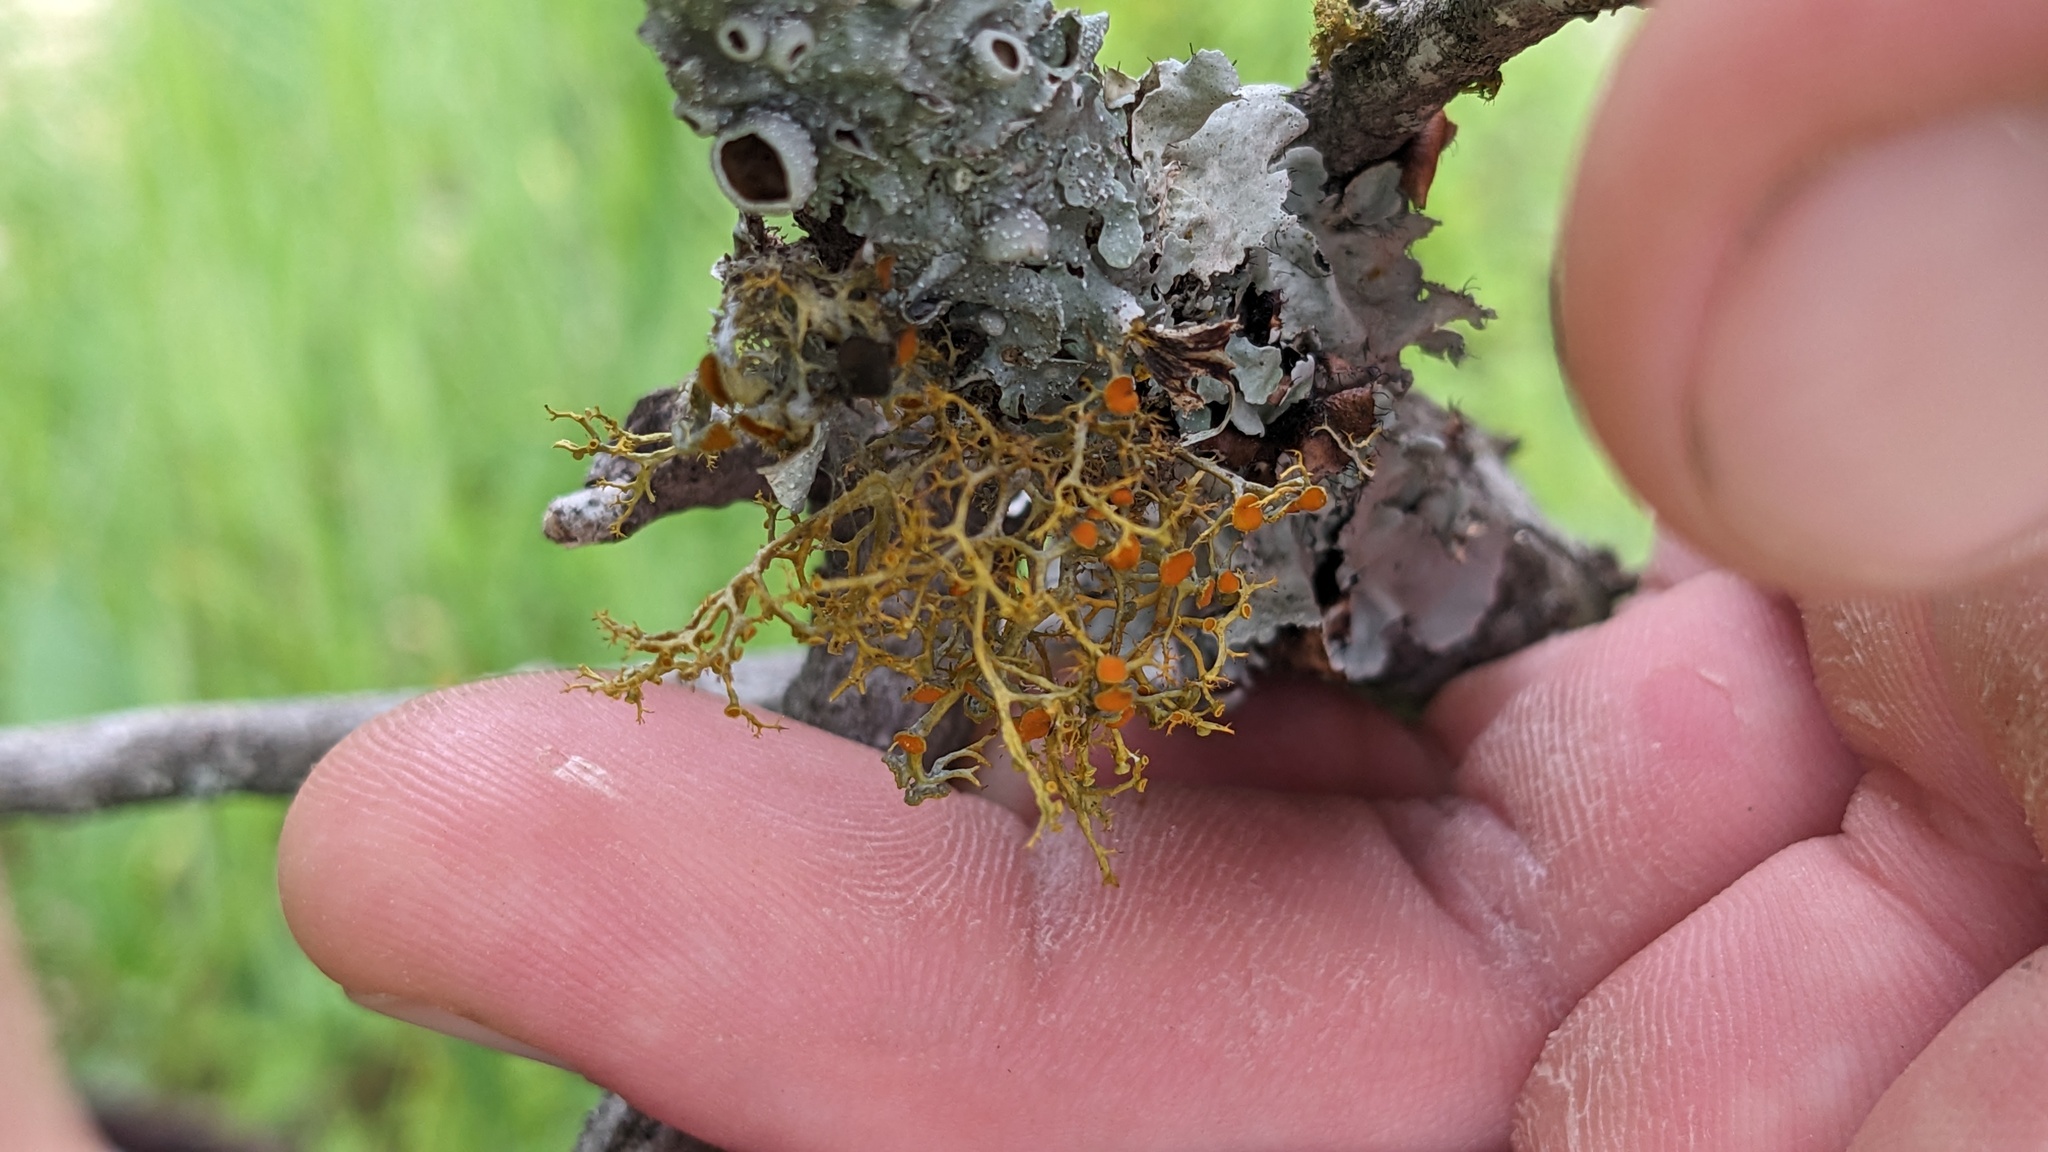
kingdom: Fungi
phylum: Ascomycota
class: Lecanoromycetes
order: Teloschistales
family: Teloschistaceae
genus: Teloschistes
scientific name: Teloschistes exilis
